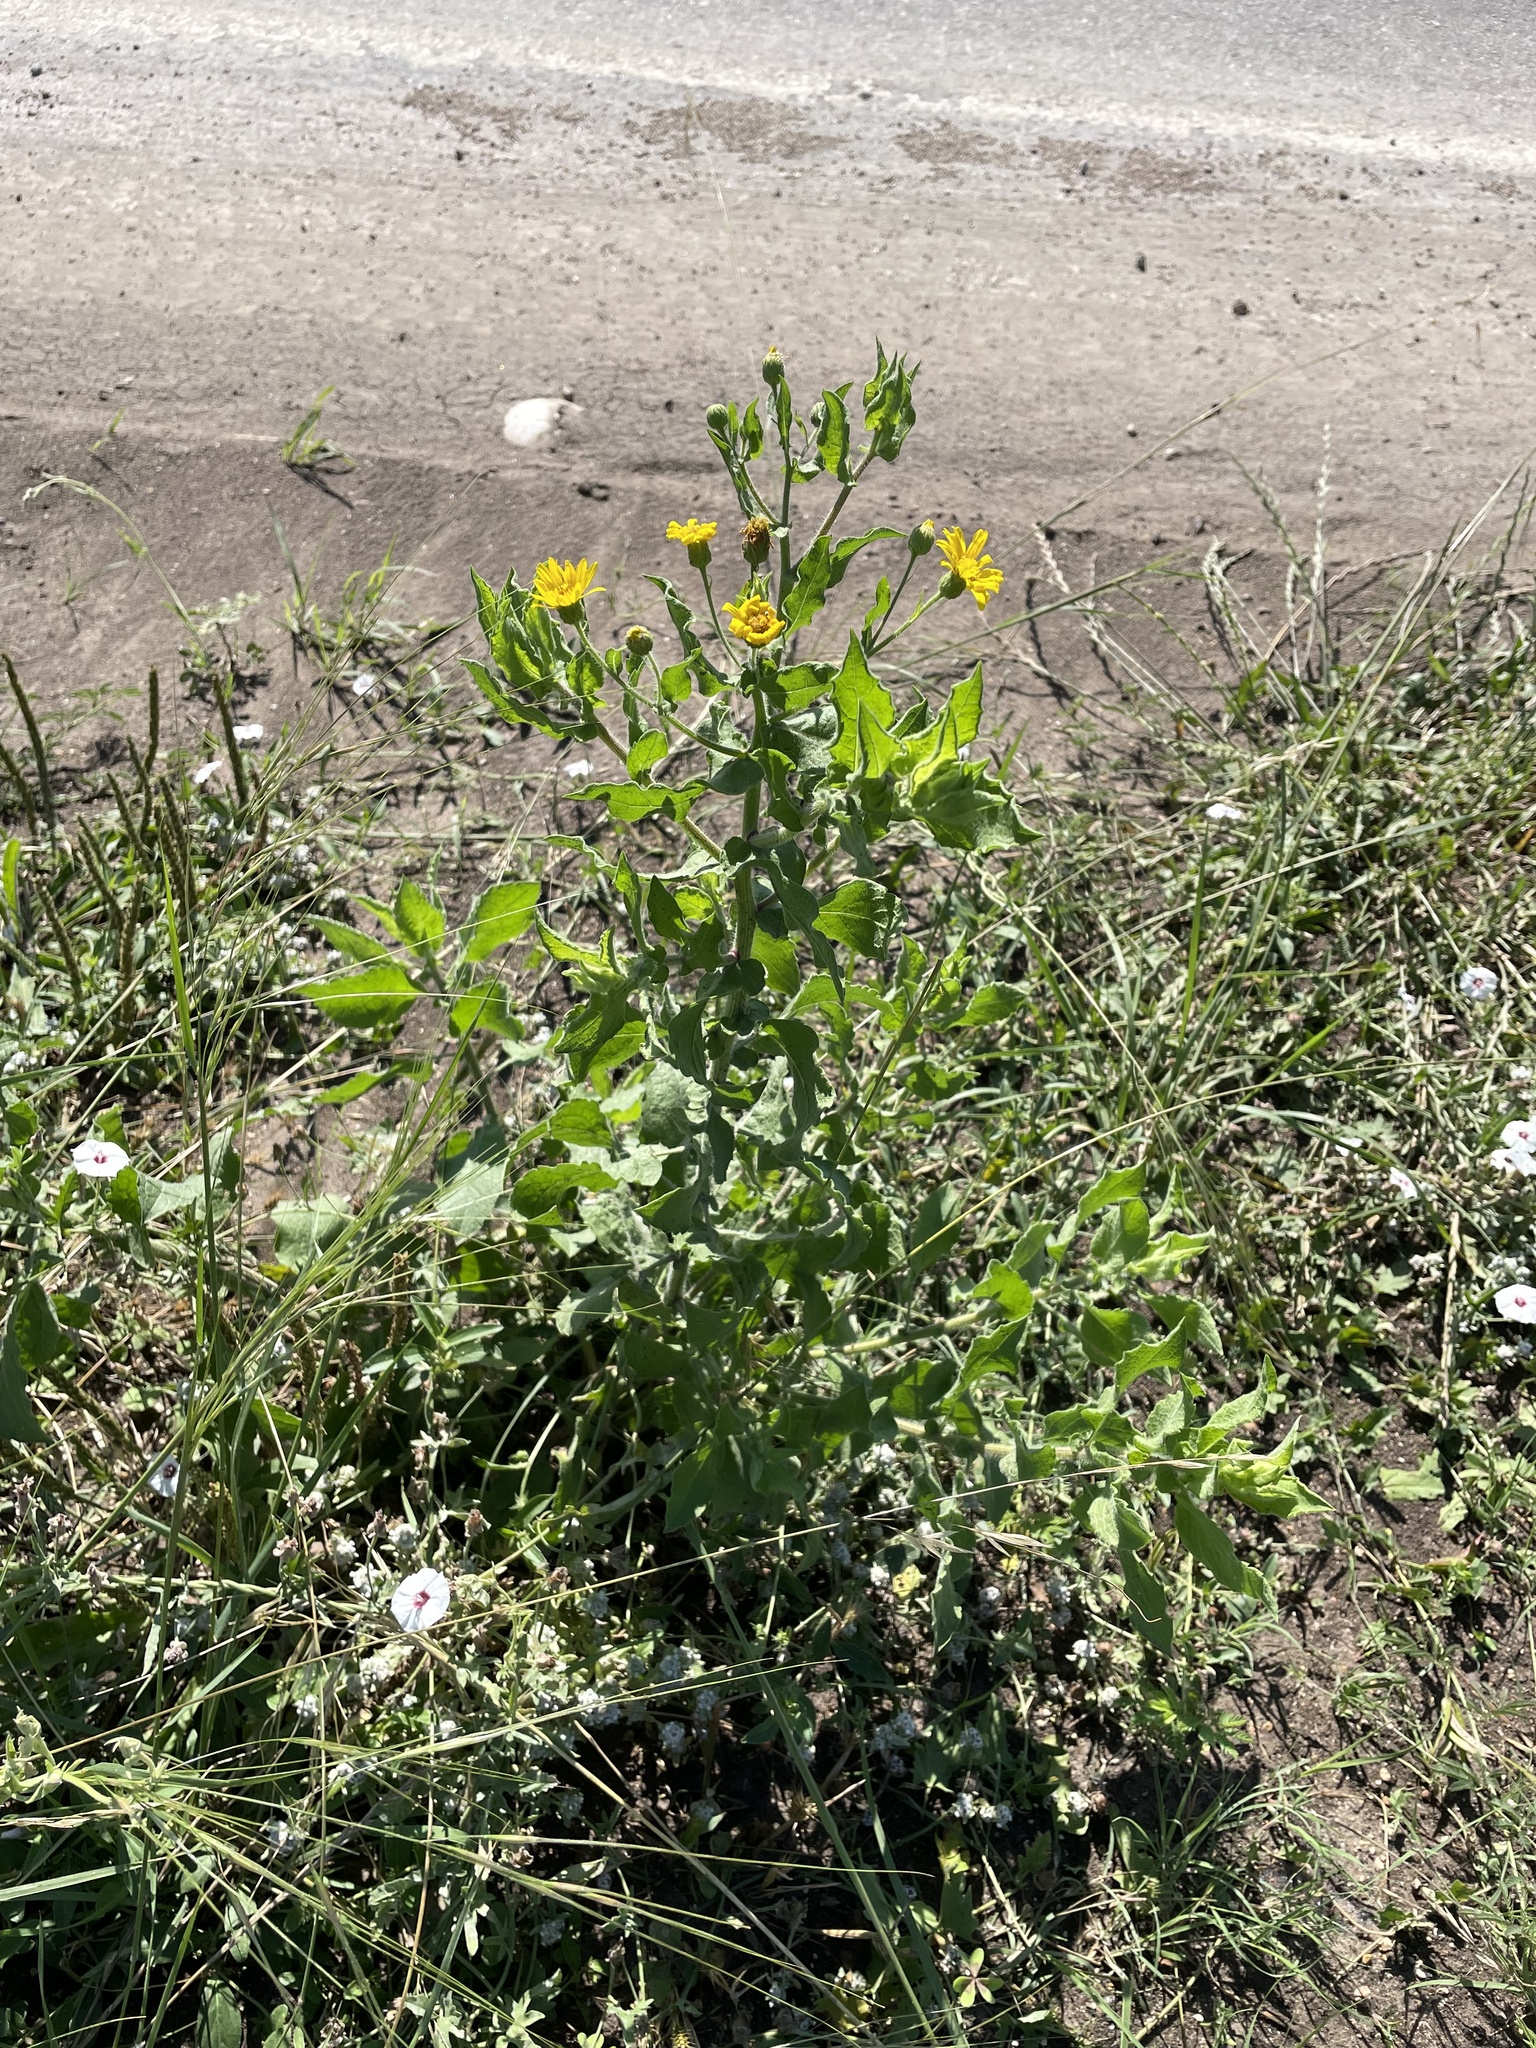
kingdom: Plantae
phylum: Tracheophyta
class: Magnoliopsida
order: Asterales
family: Asteraceae
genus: Heterotheca
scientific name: Heterotheca subaxillaris
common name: Camphorweed
